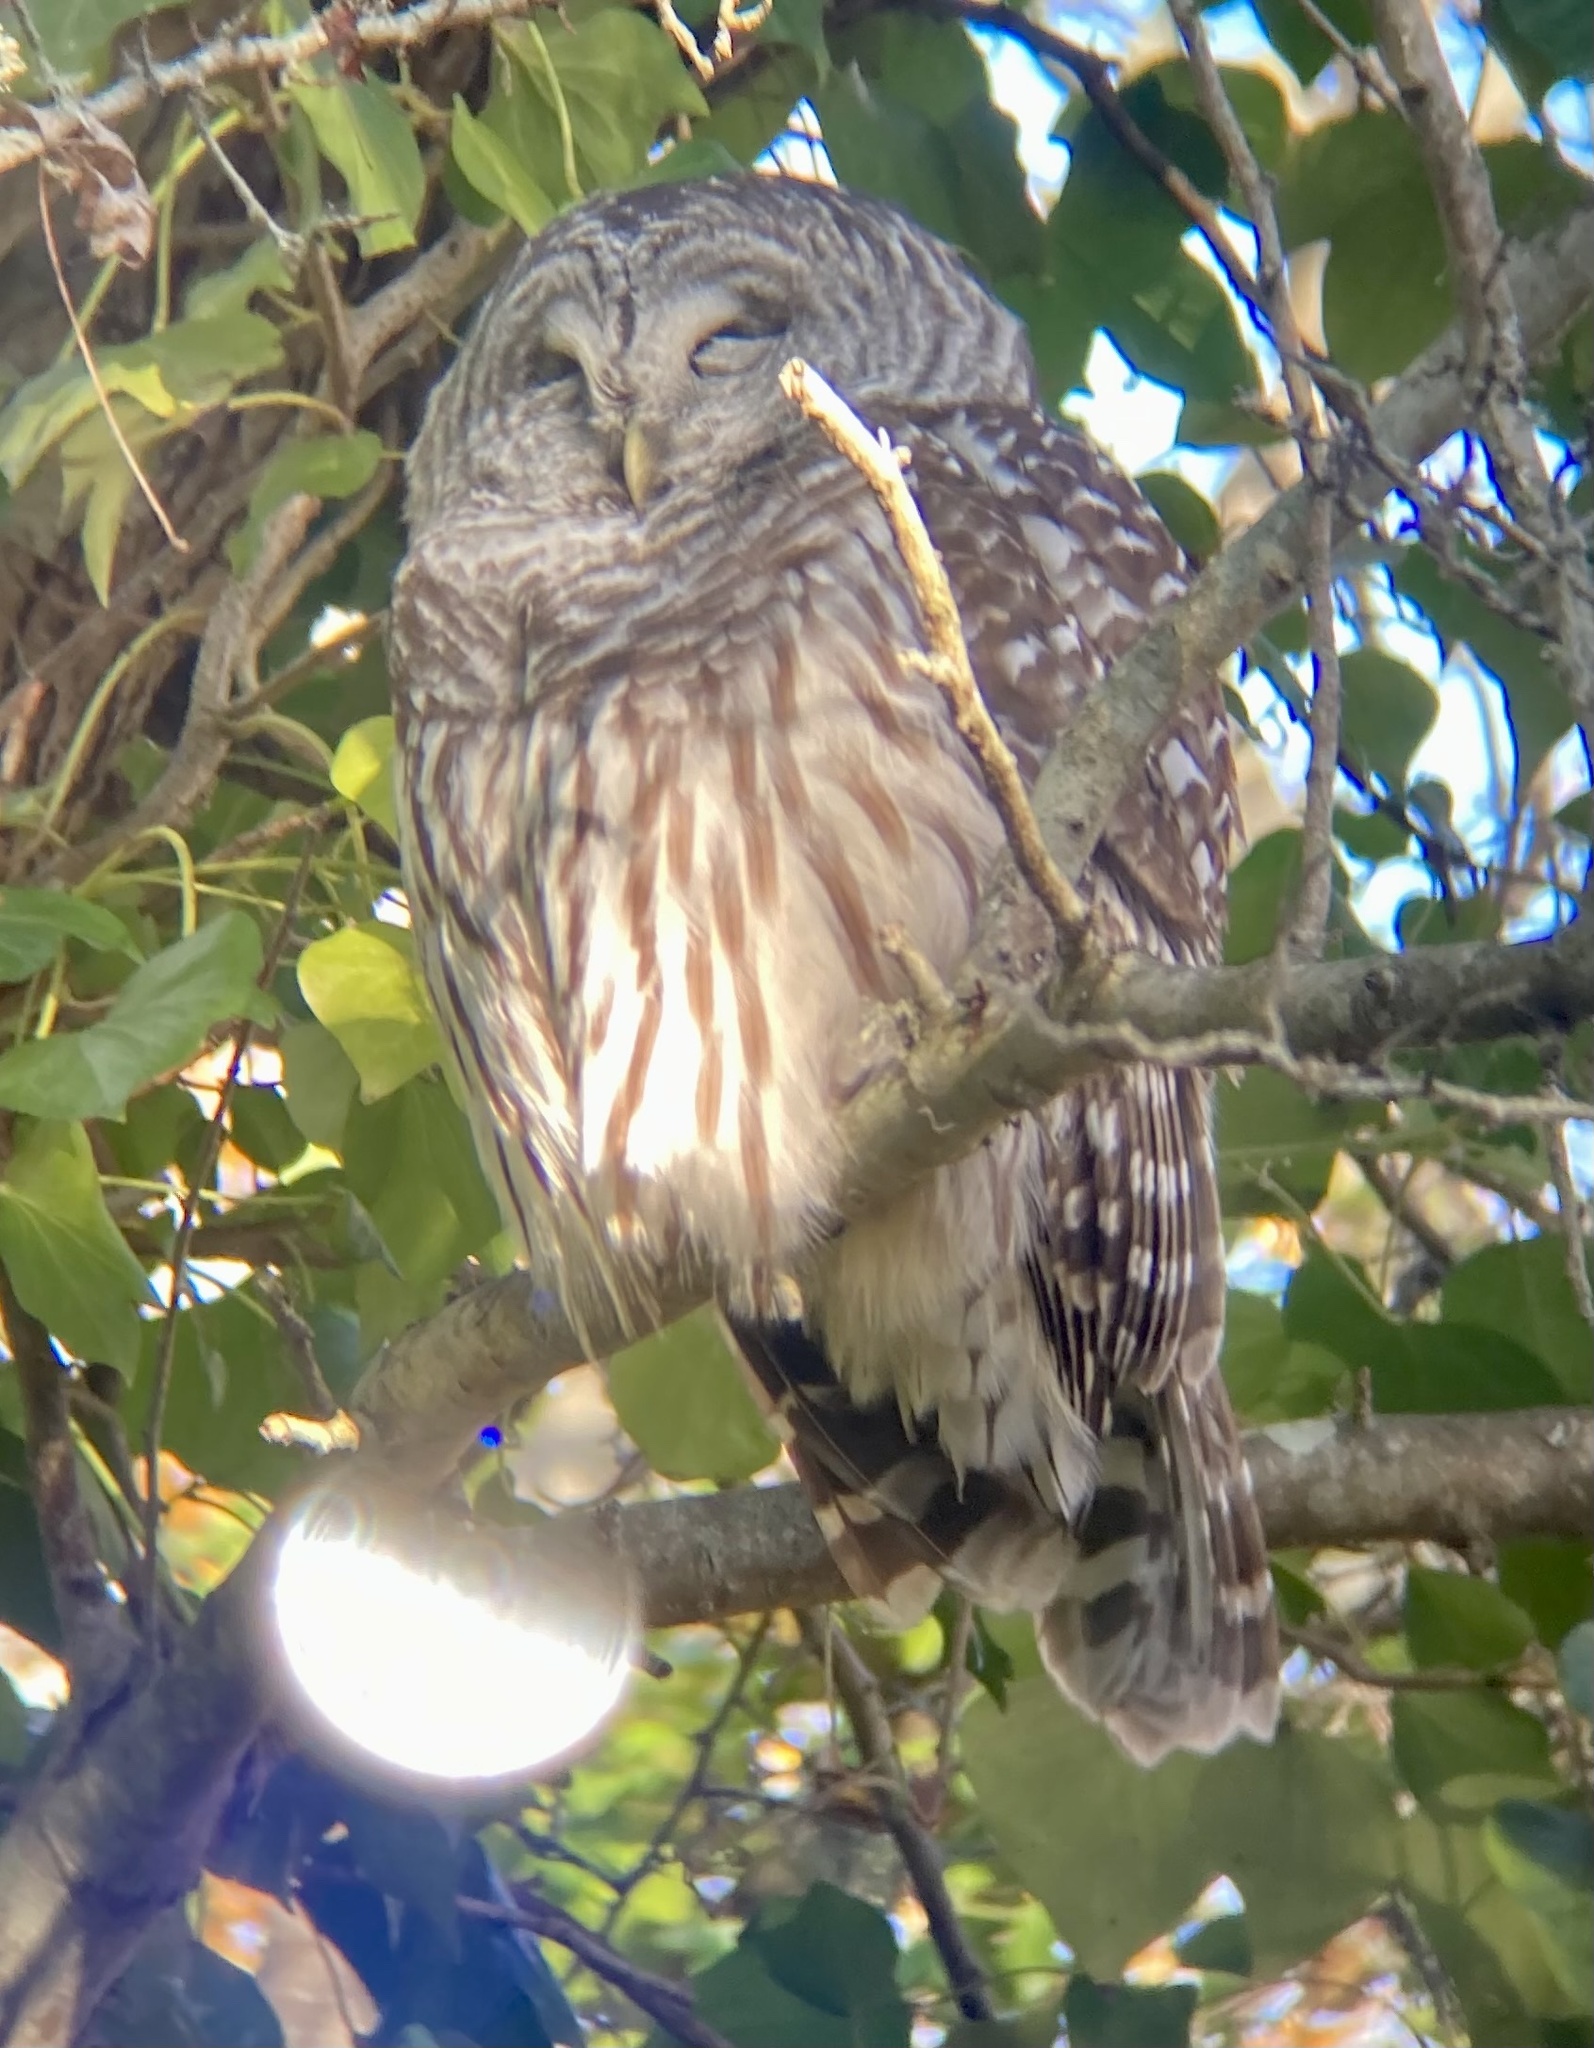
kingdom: Animalia
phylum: Chordata
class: Aves
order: Strigiformes
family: Strigidae
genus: Strix
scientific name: Strix varia
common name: Barred owl
